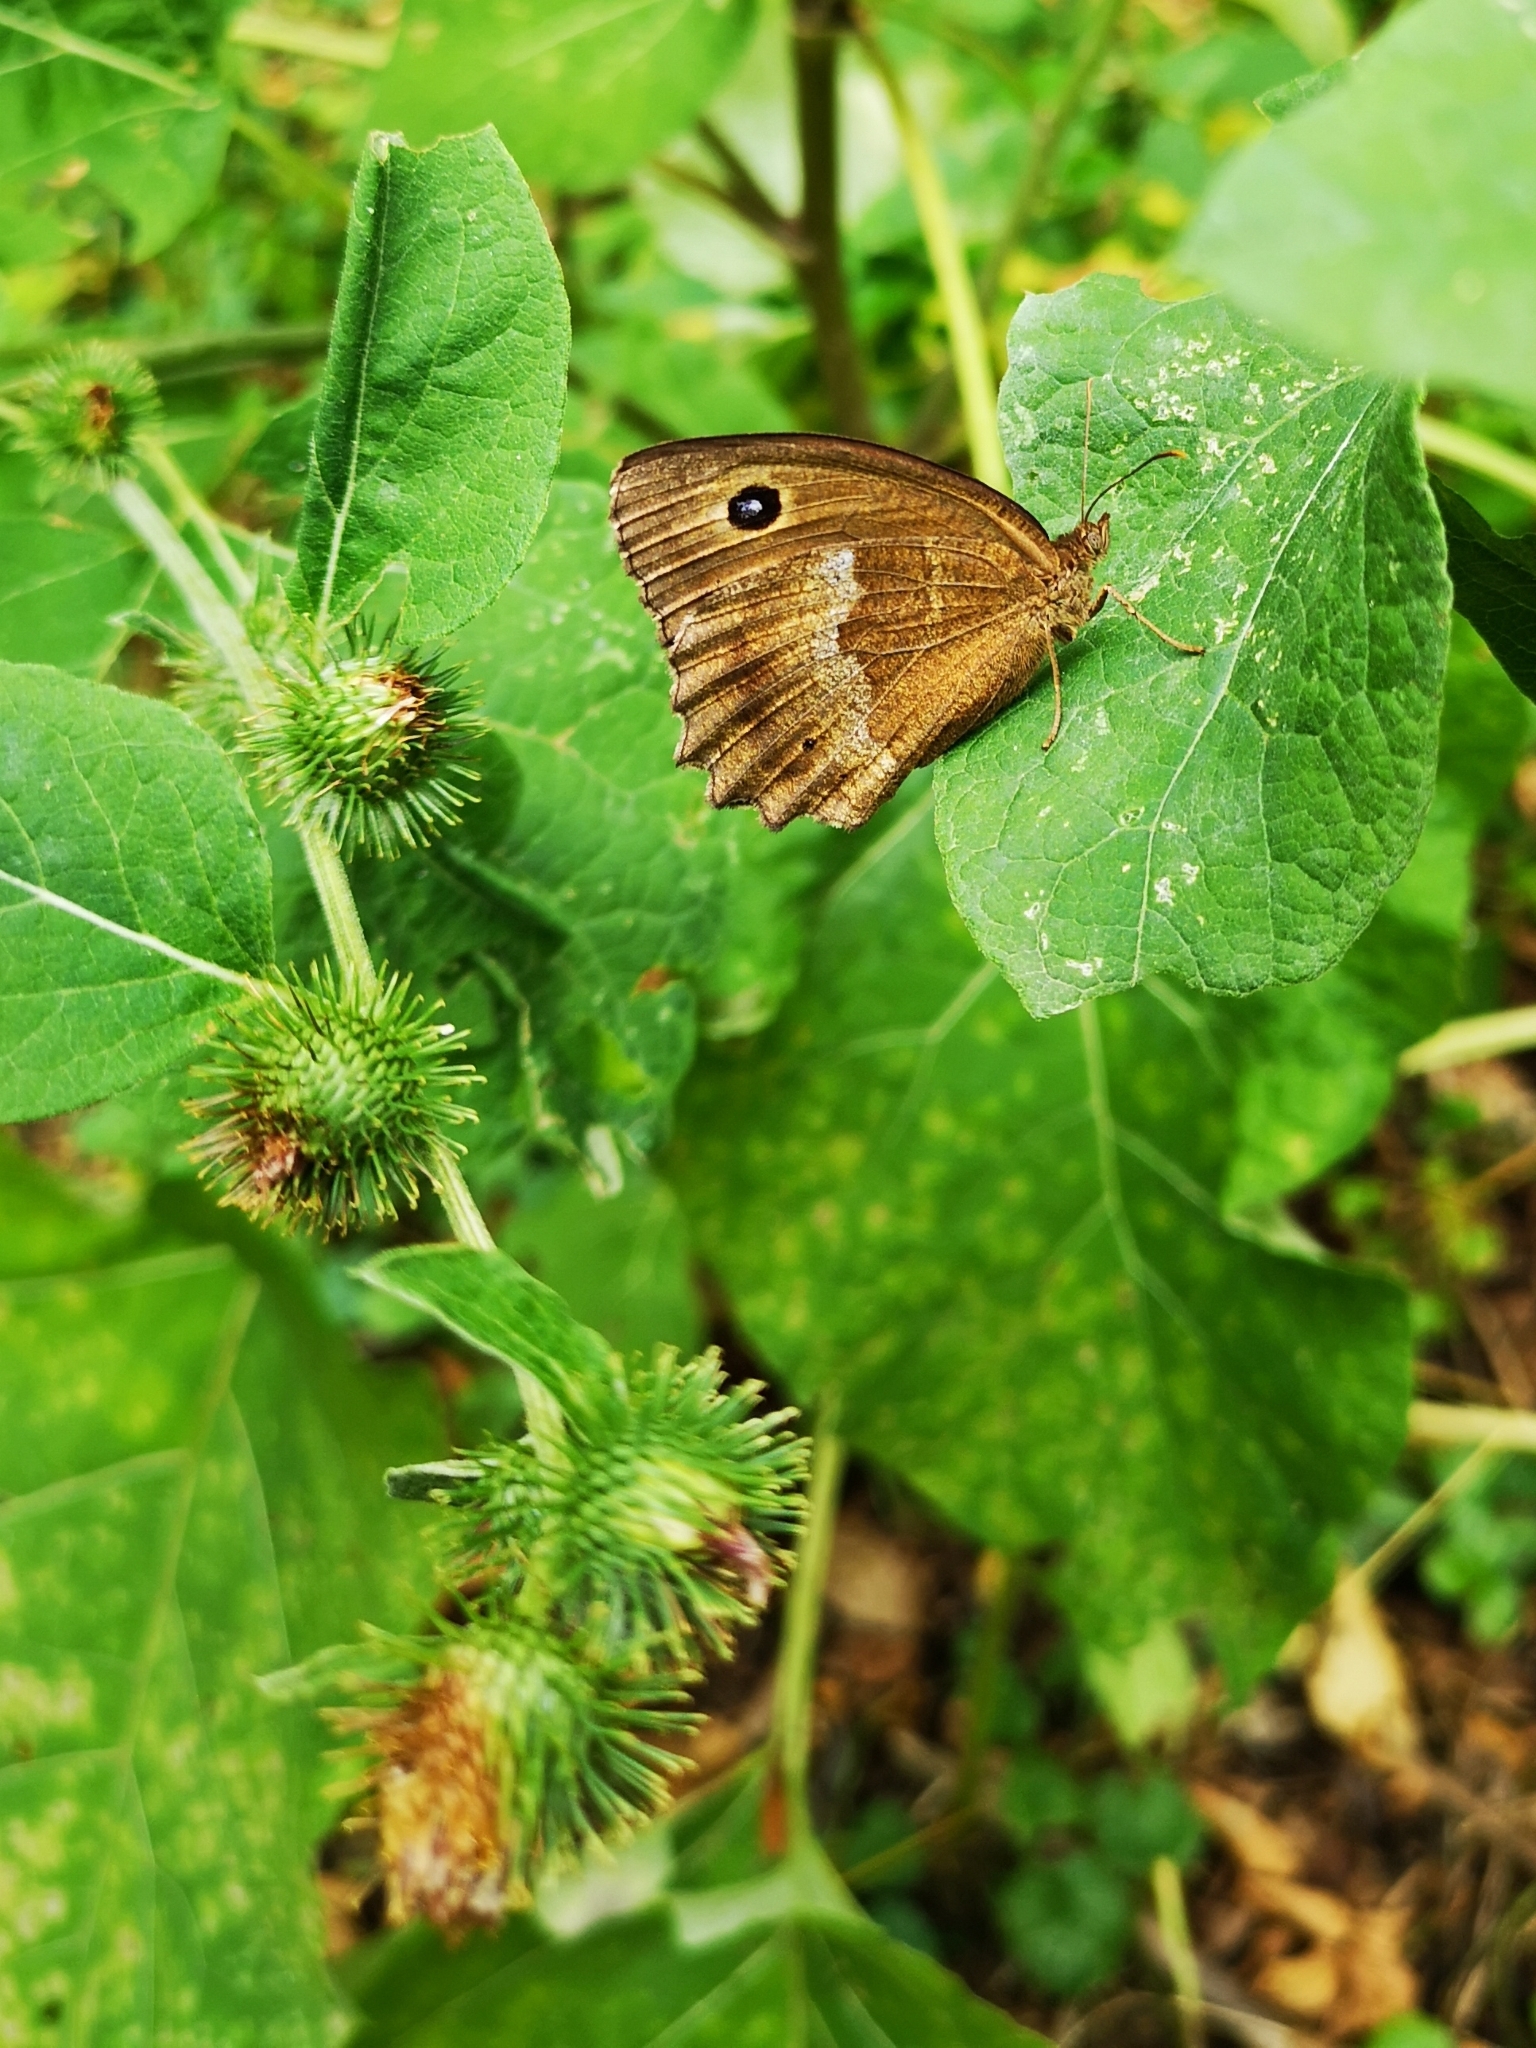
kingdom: Animalia
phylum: Arthropoda
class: Insecta
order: Lepidoptera
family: Nymphalidae
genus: Minois
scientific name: Minois dryas
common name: Dryad
